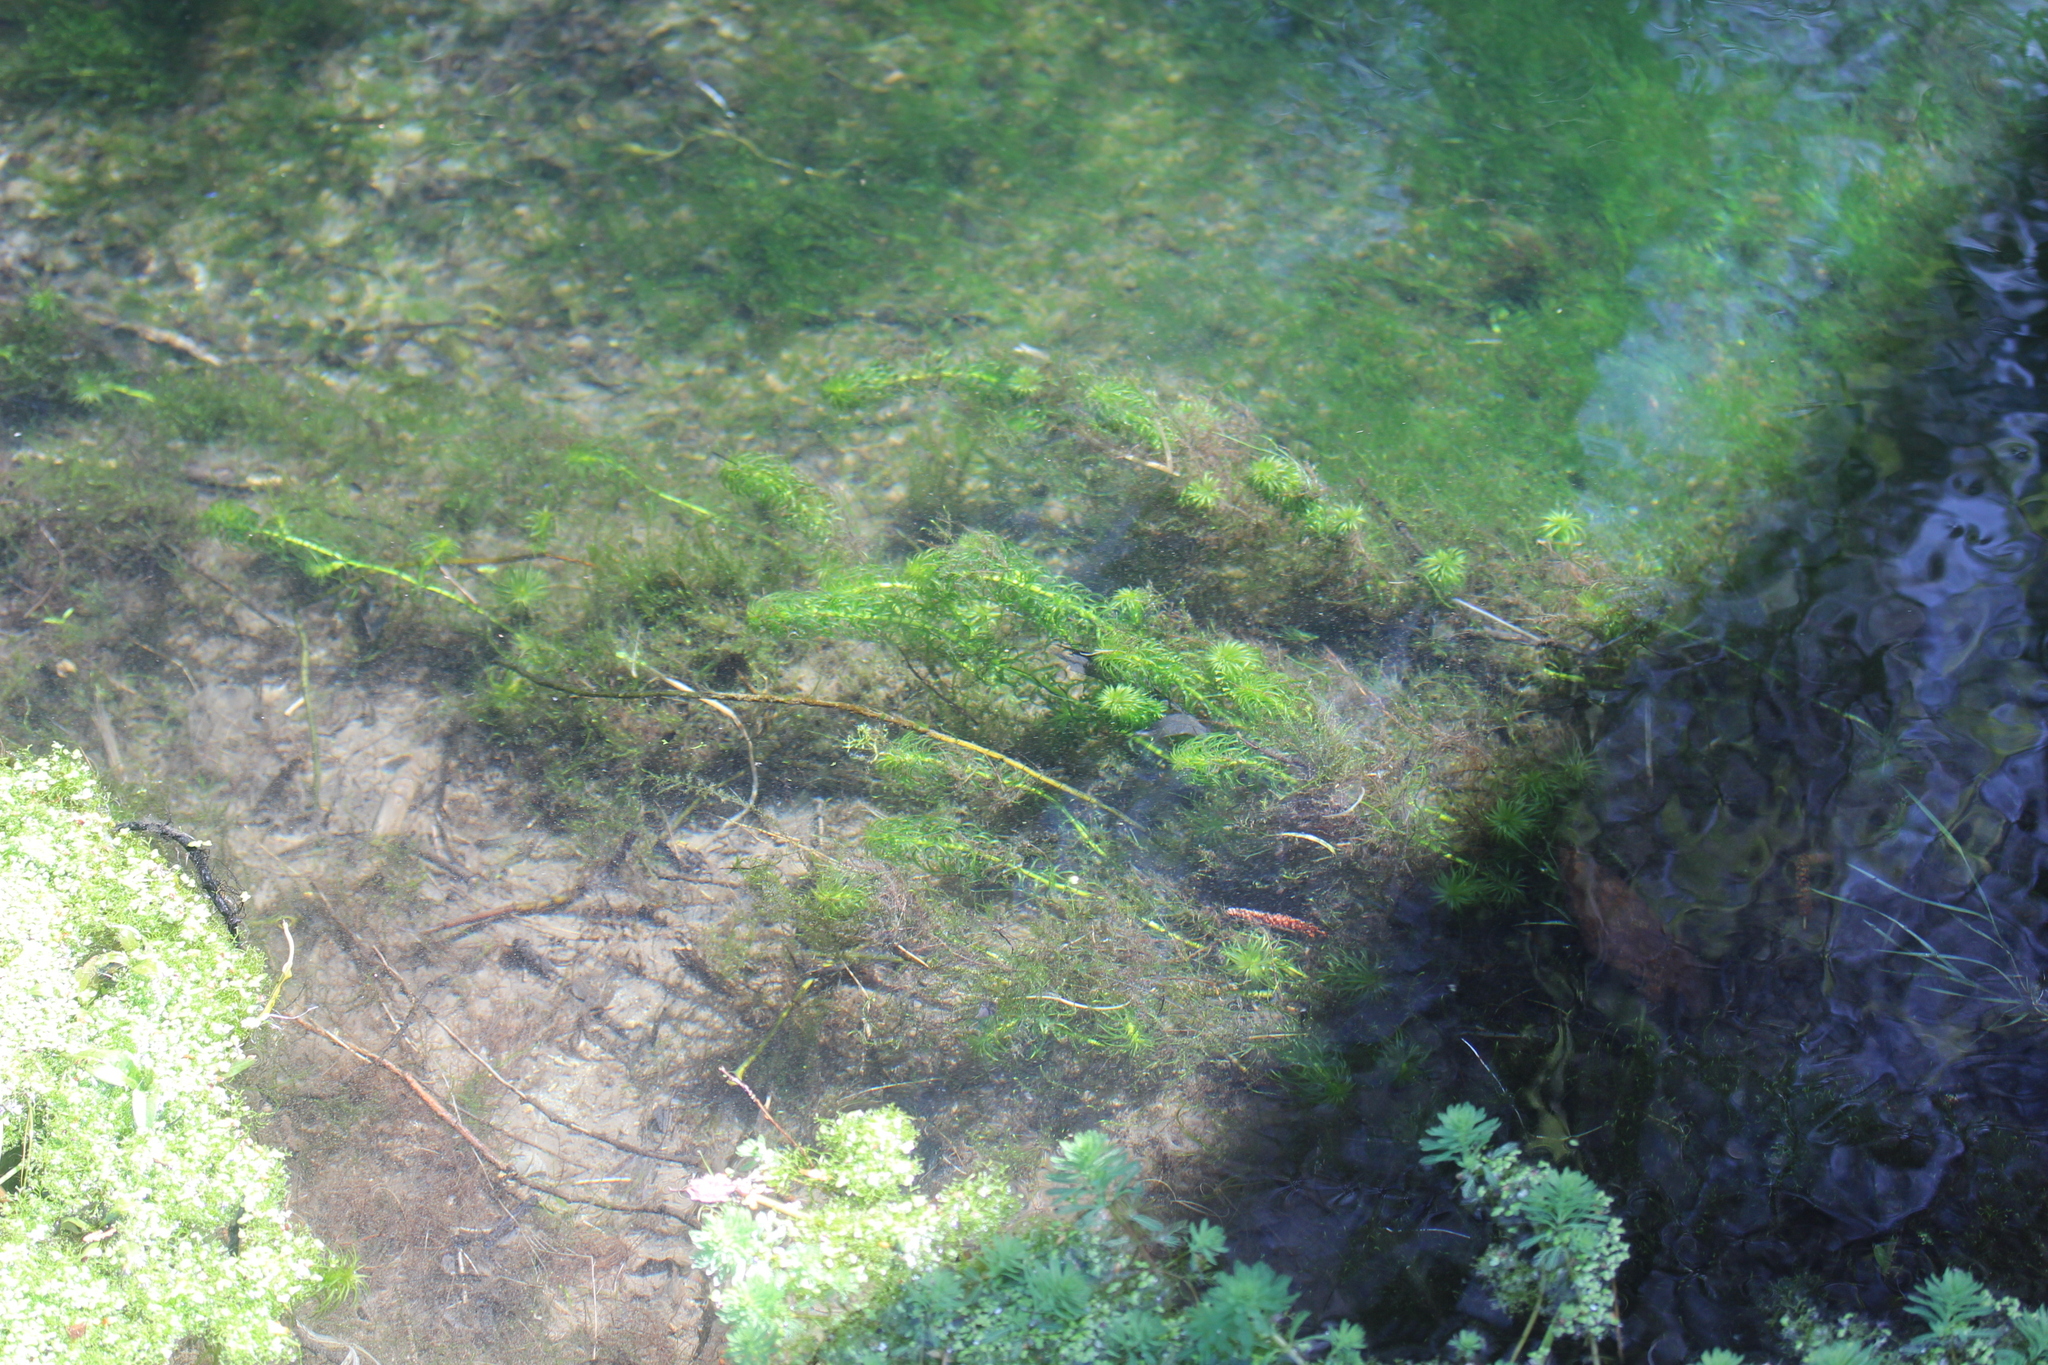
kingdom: Plantae
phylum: Tracheophyta
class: Liliopsida
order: Alismatales
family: Hydrocharitaceae
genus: Lagarosiphon
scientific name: Lagarosiphon major
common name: Curly waterweed
